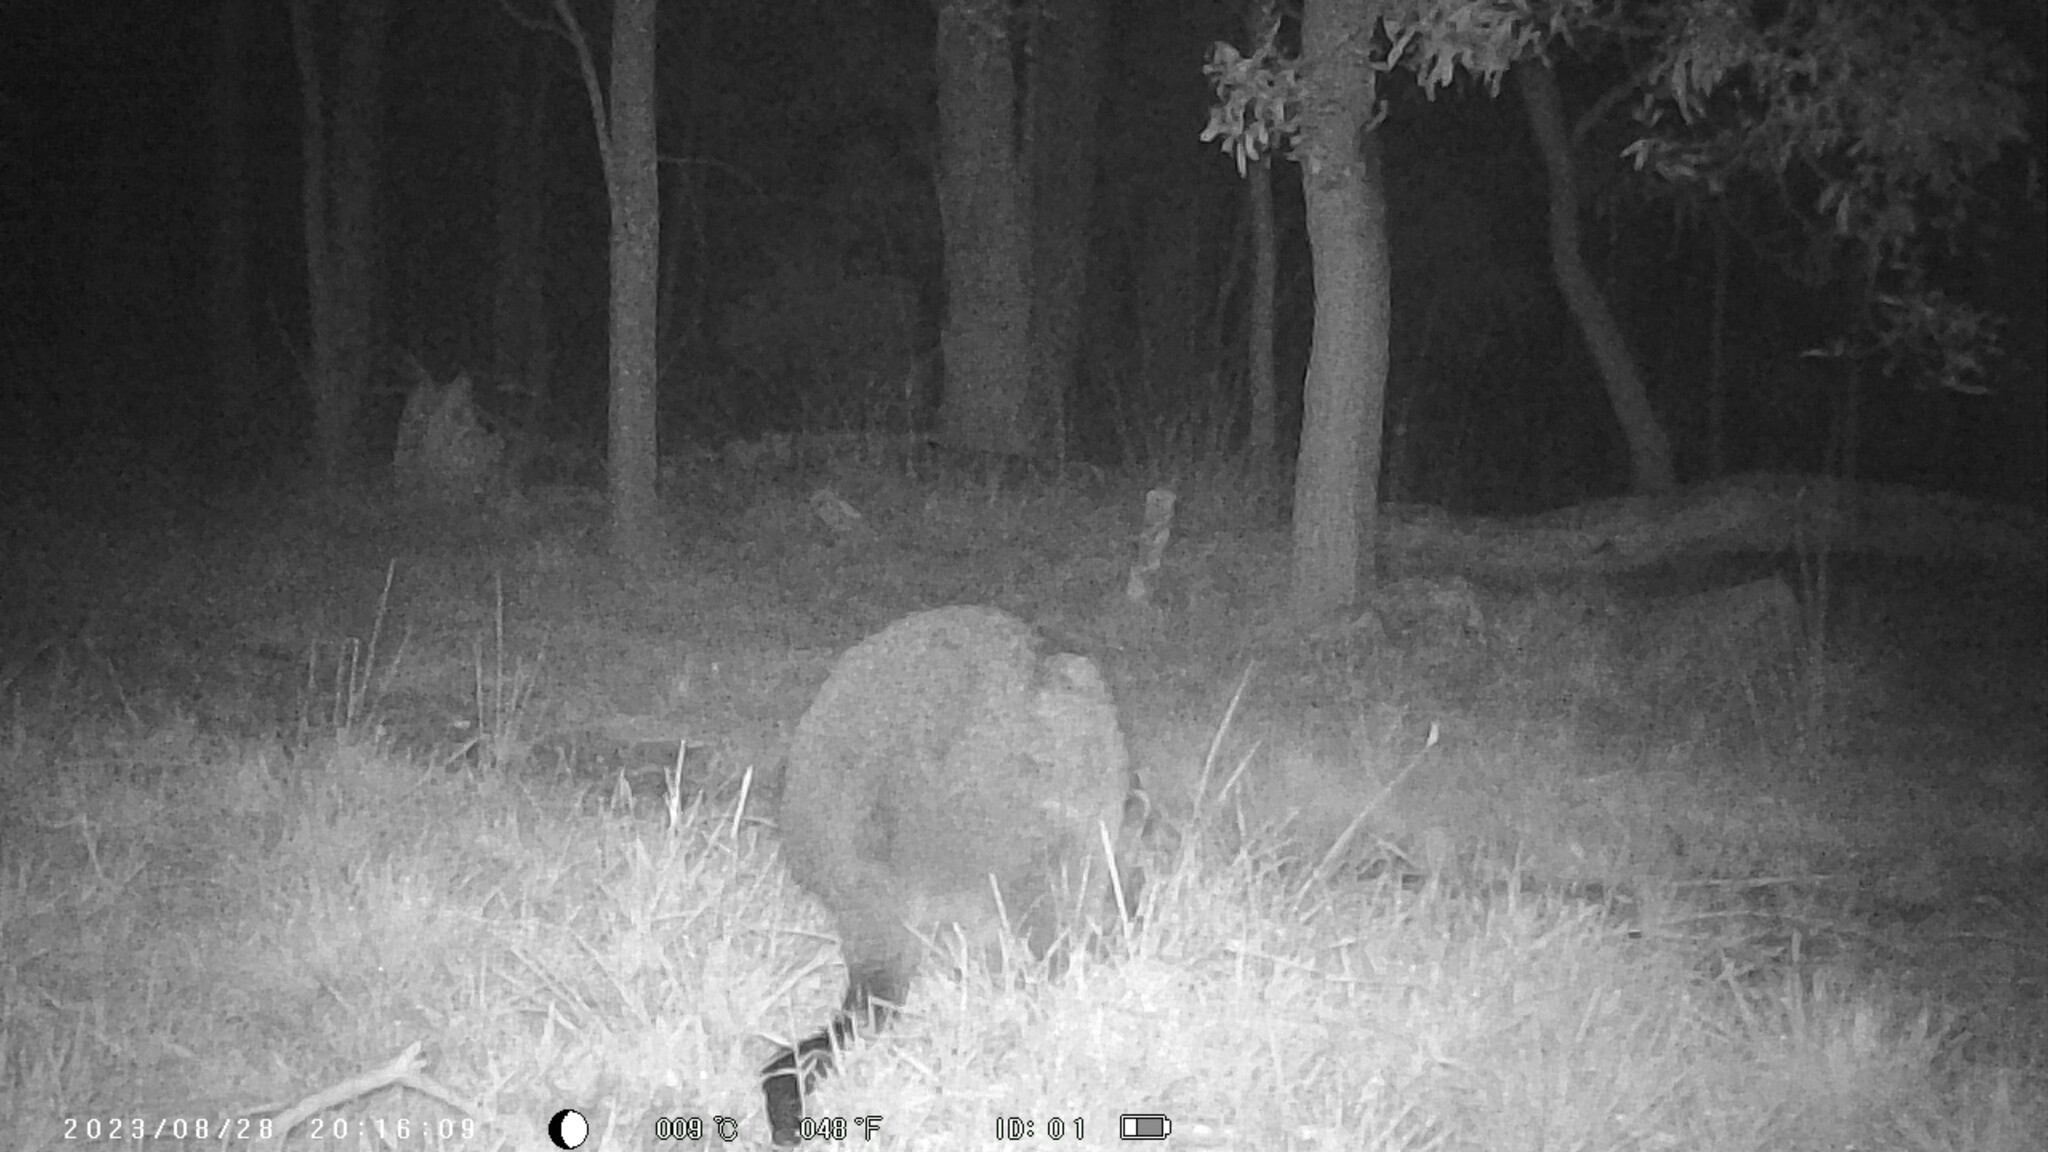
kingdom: Animalia
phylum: Chordata
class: Mammalia
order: Diprotodontia
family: Macropodidae
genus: Wallabia
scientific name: Wallabia bicolor
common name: Swamp wallaby
